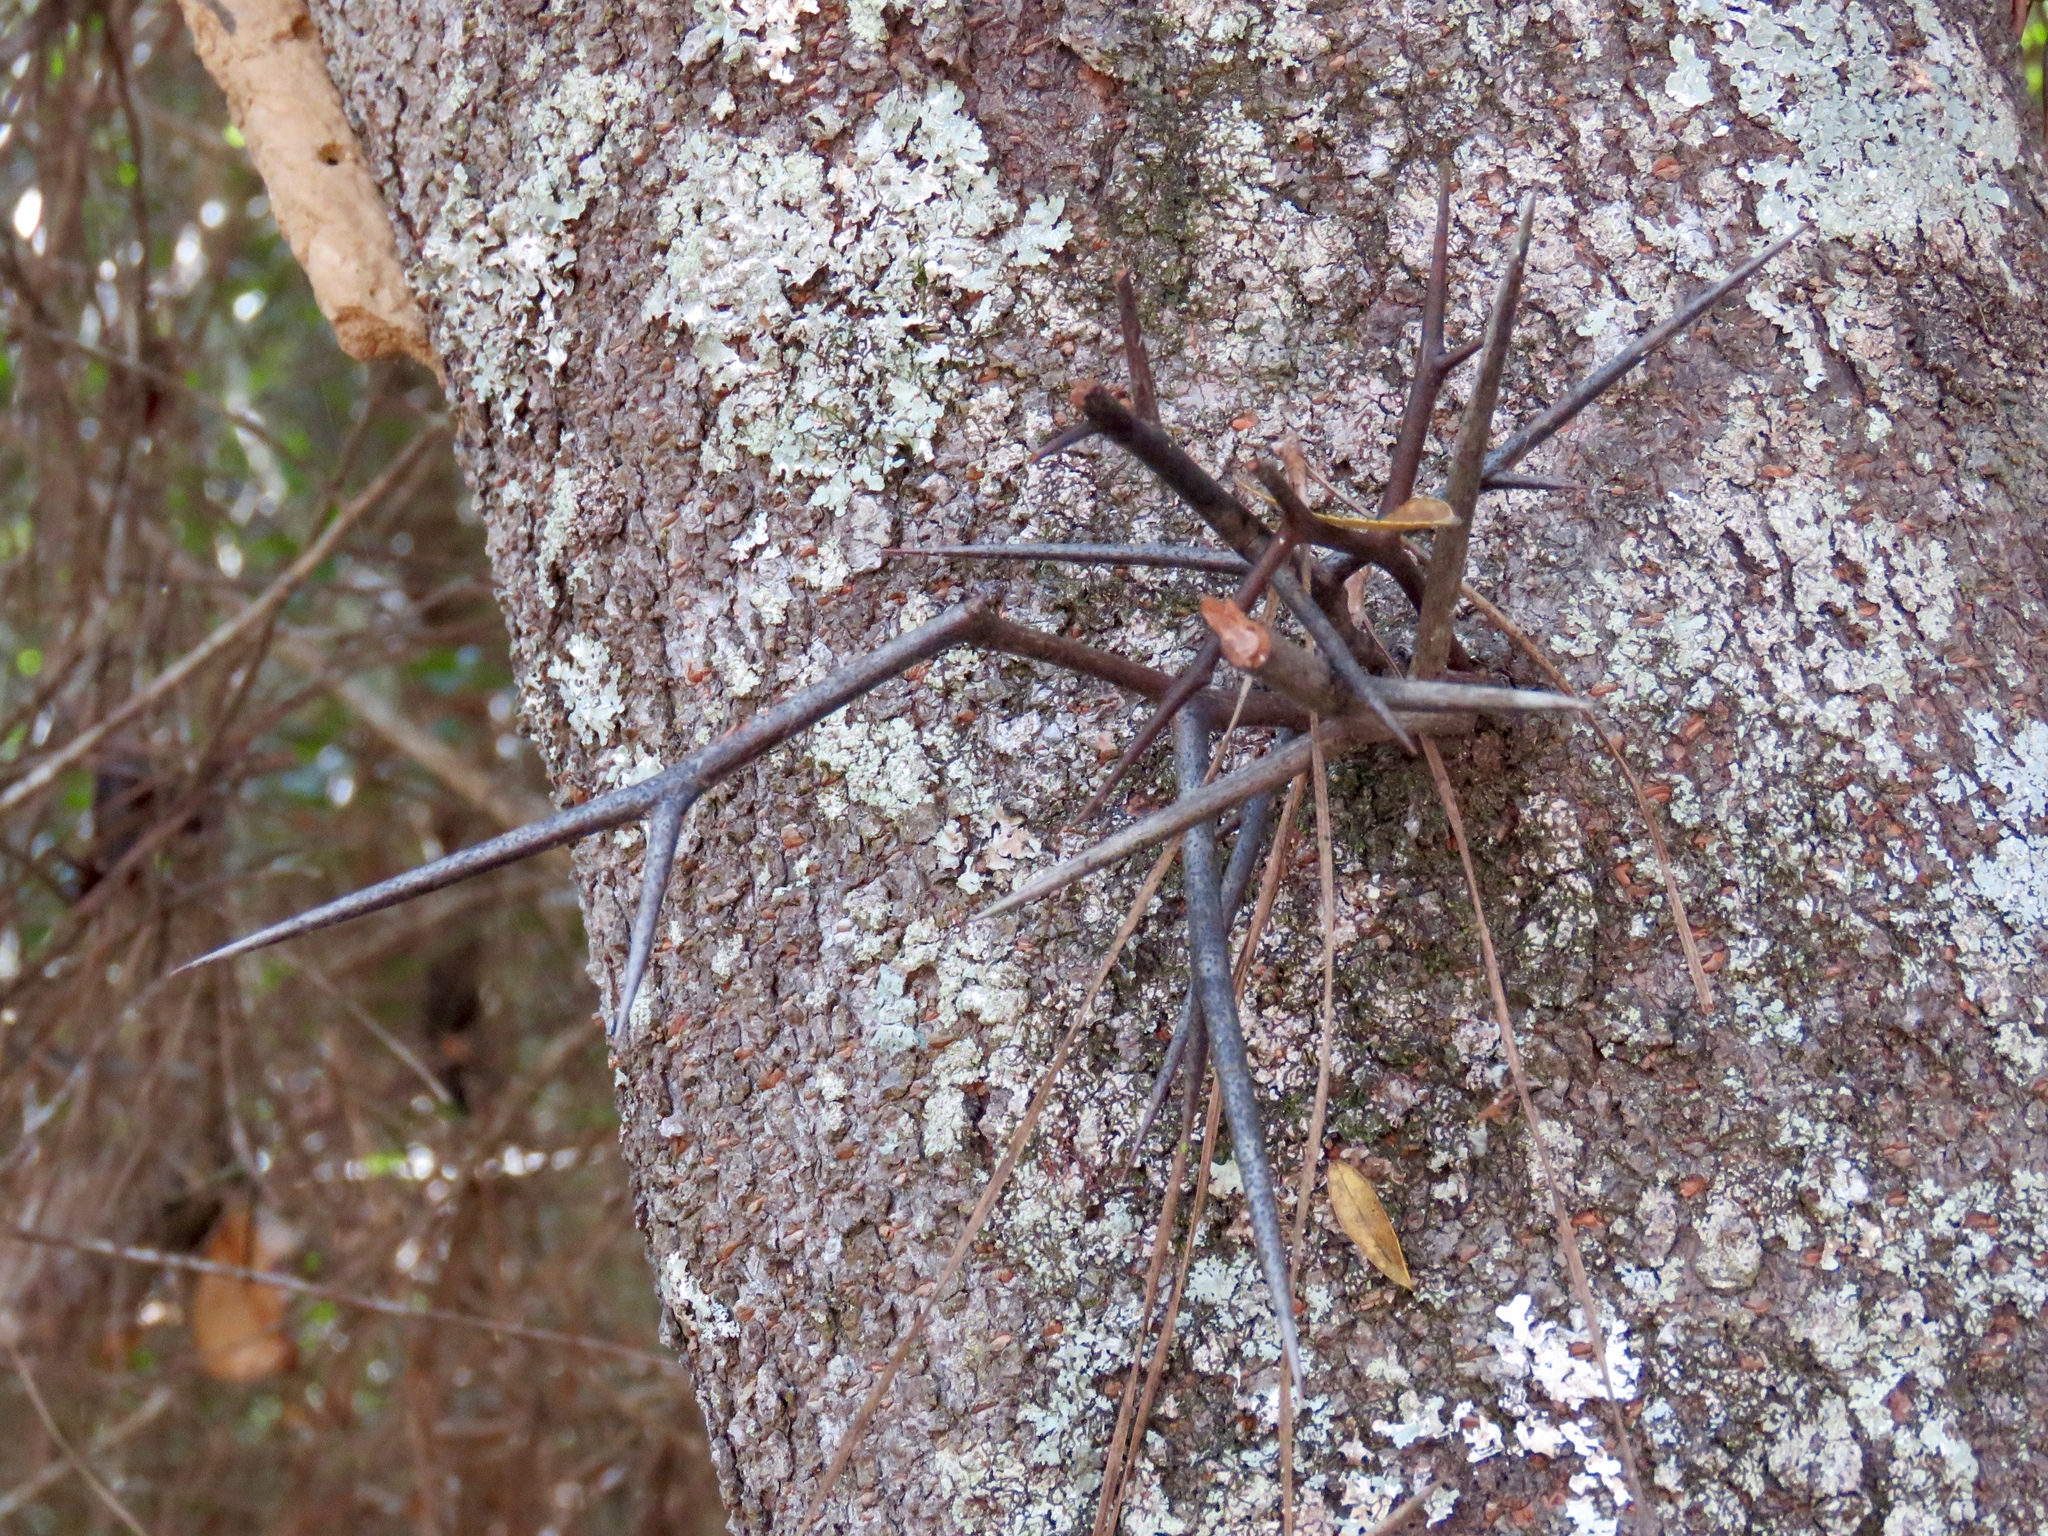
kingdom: Plantae
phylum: Tracheophyta
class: Magnoliopsida
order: Fabales
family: Fabaceae
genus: Gleditsia
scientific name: Gleditsia triacanthos
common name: Common honeylocust
